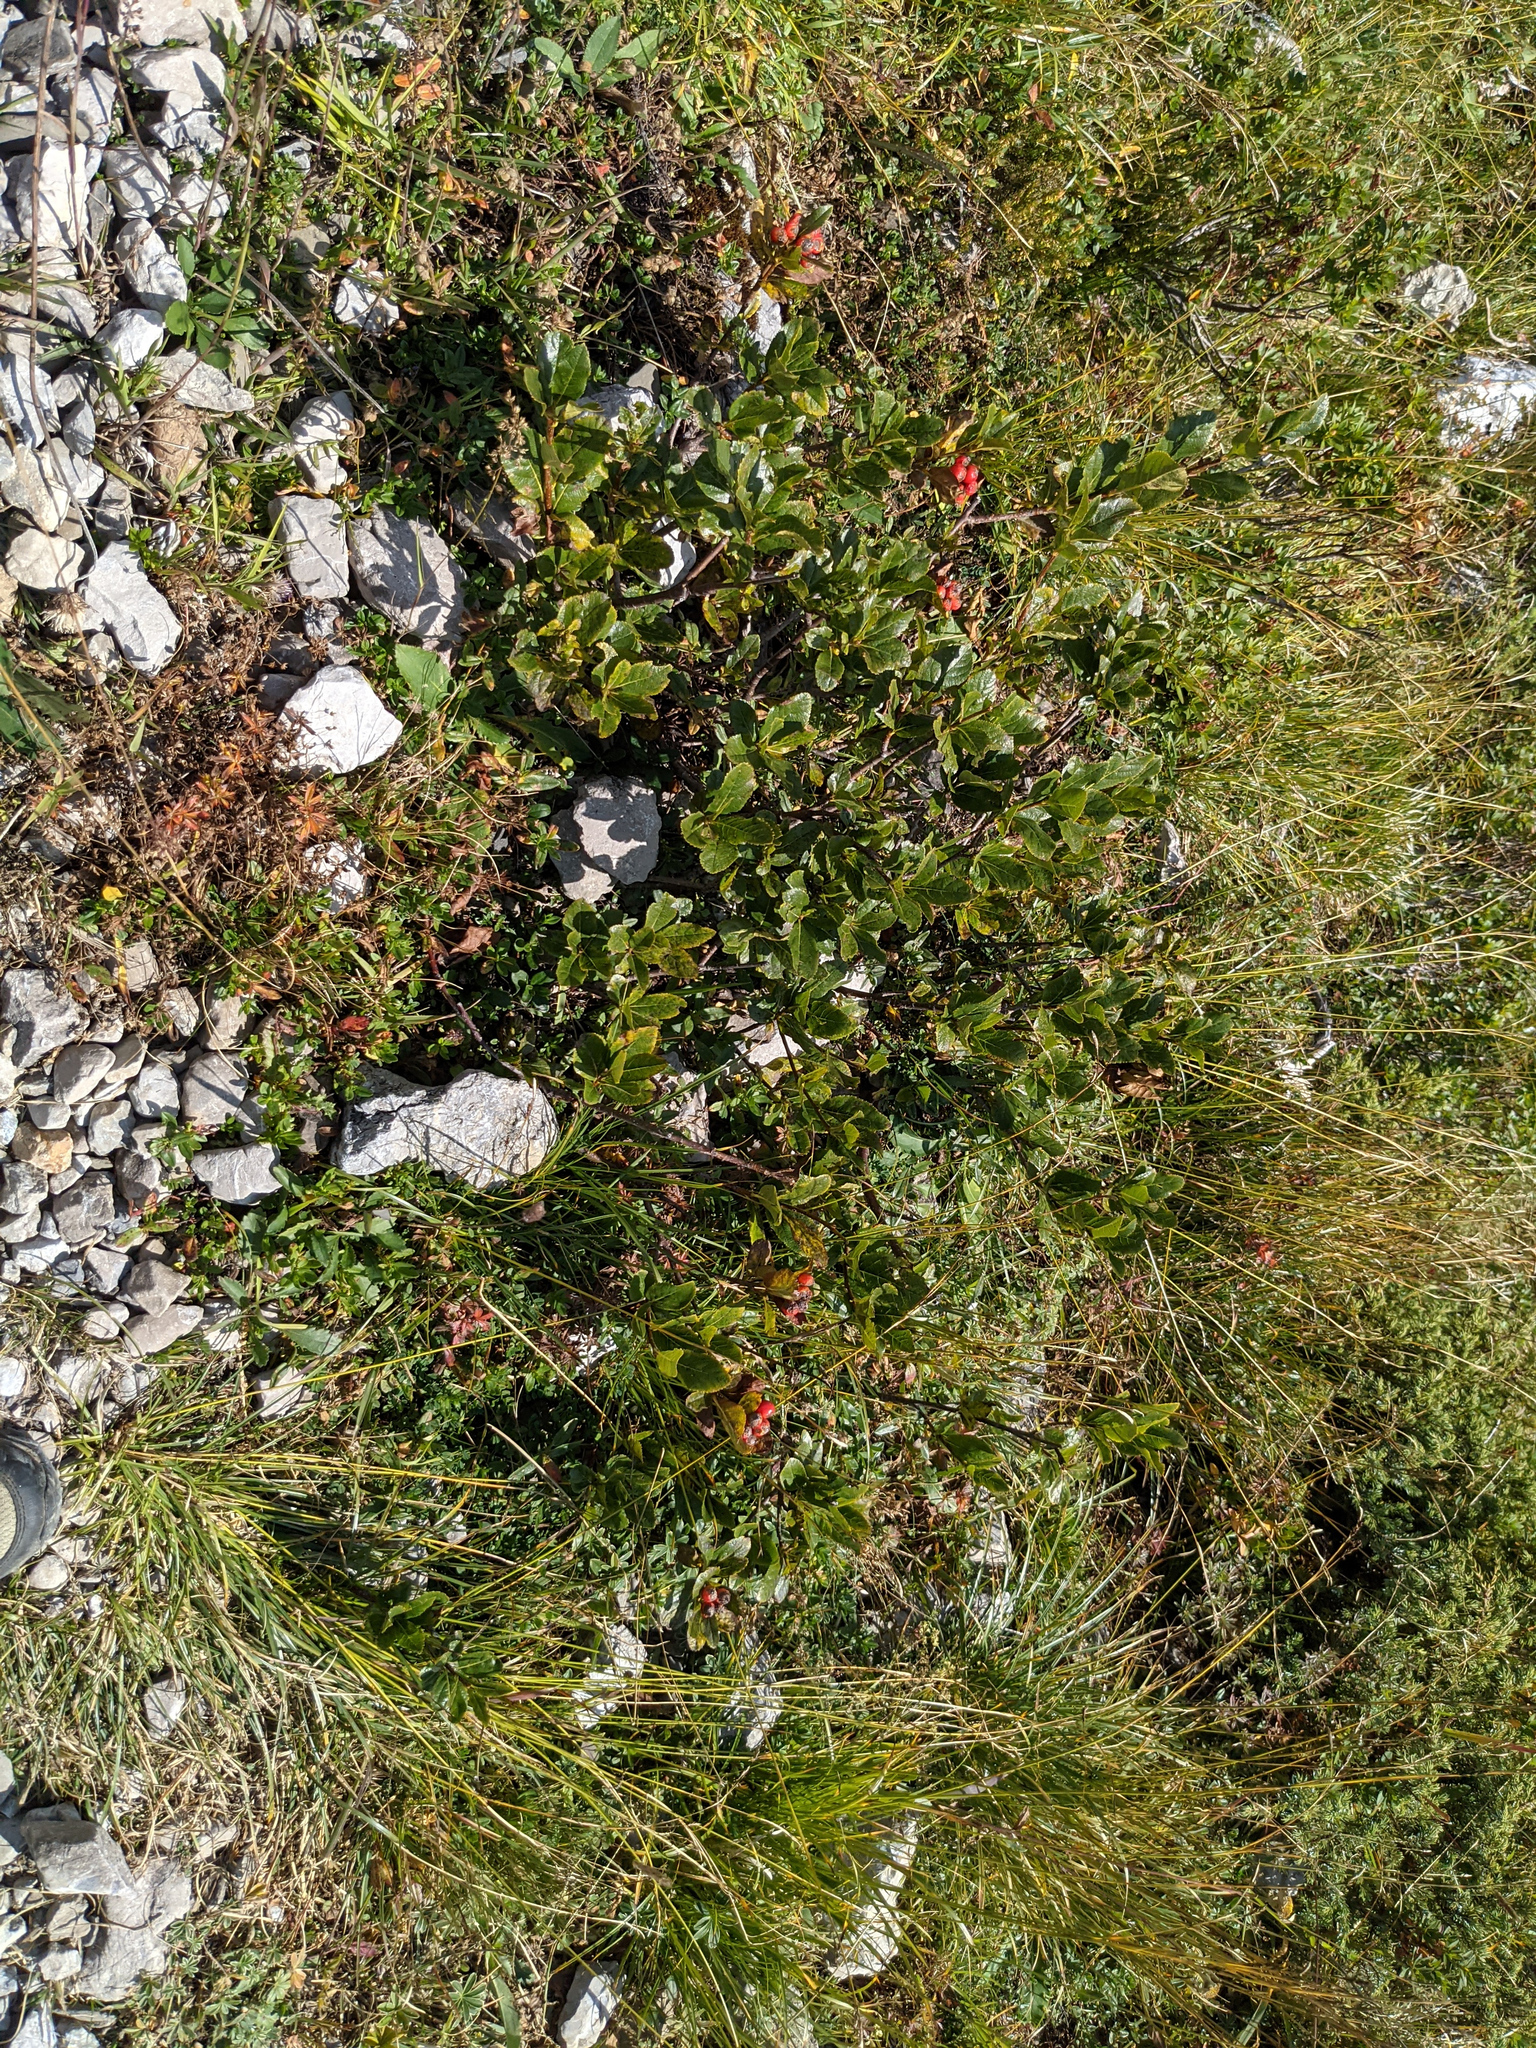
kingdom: Plantae
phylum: Tracheophyta
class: Magnoliopsida
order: Rosales
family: Rosaceae
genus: Chamaemespilus
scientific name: Chamaemespilus alpina
